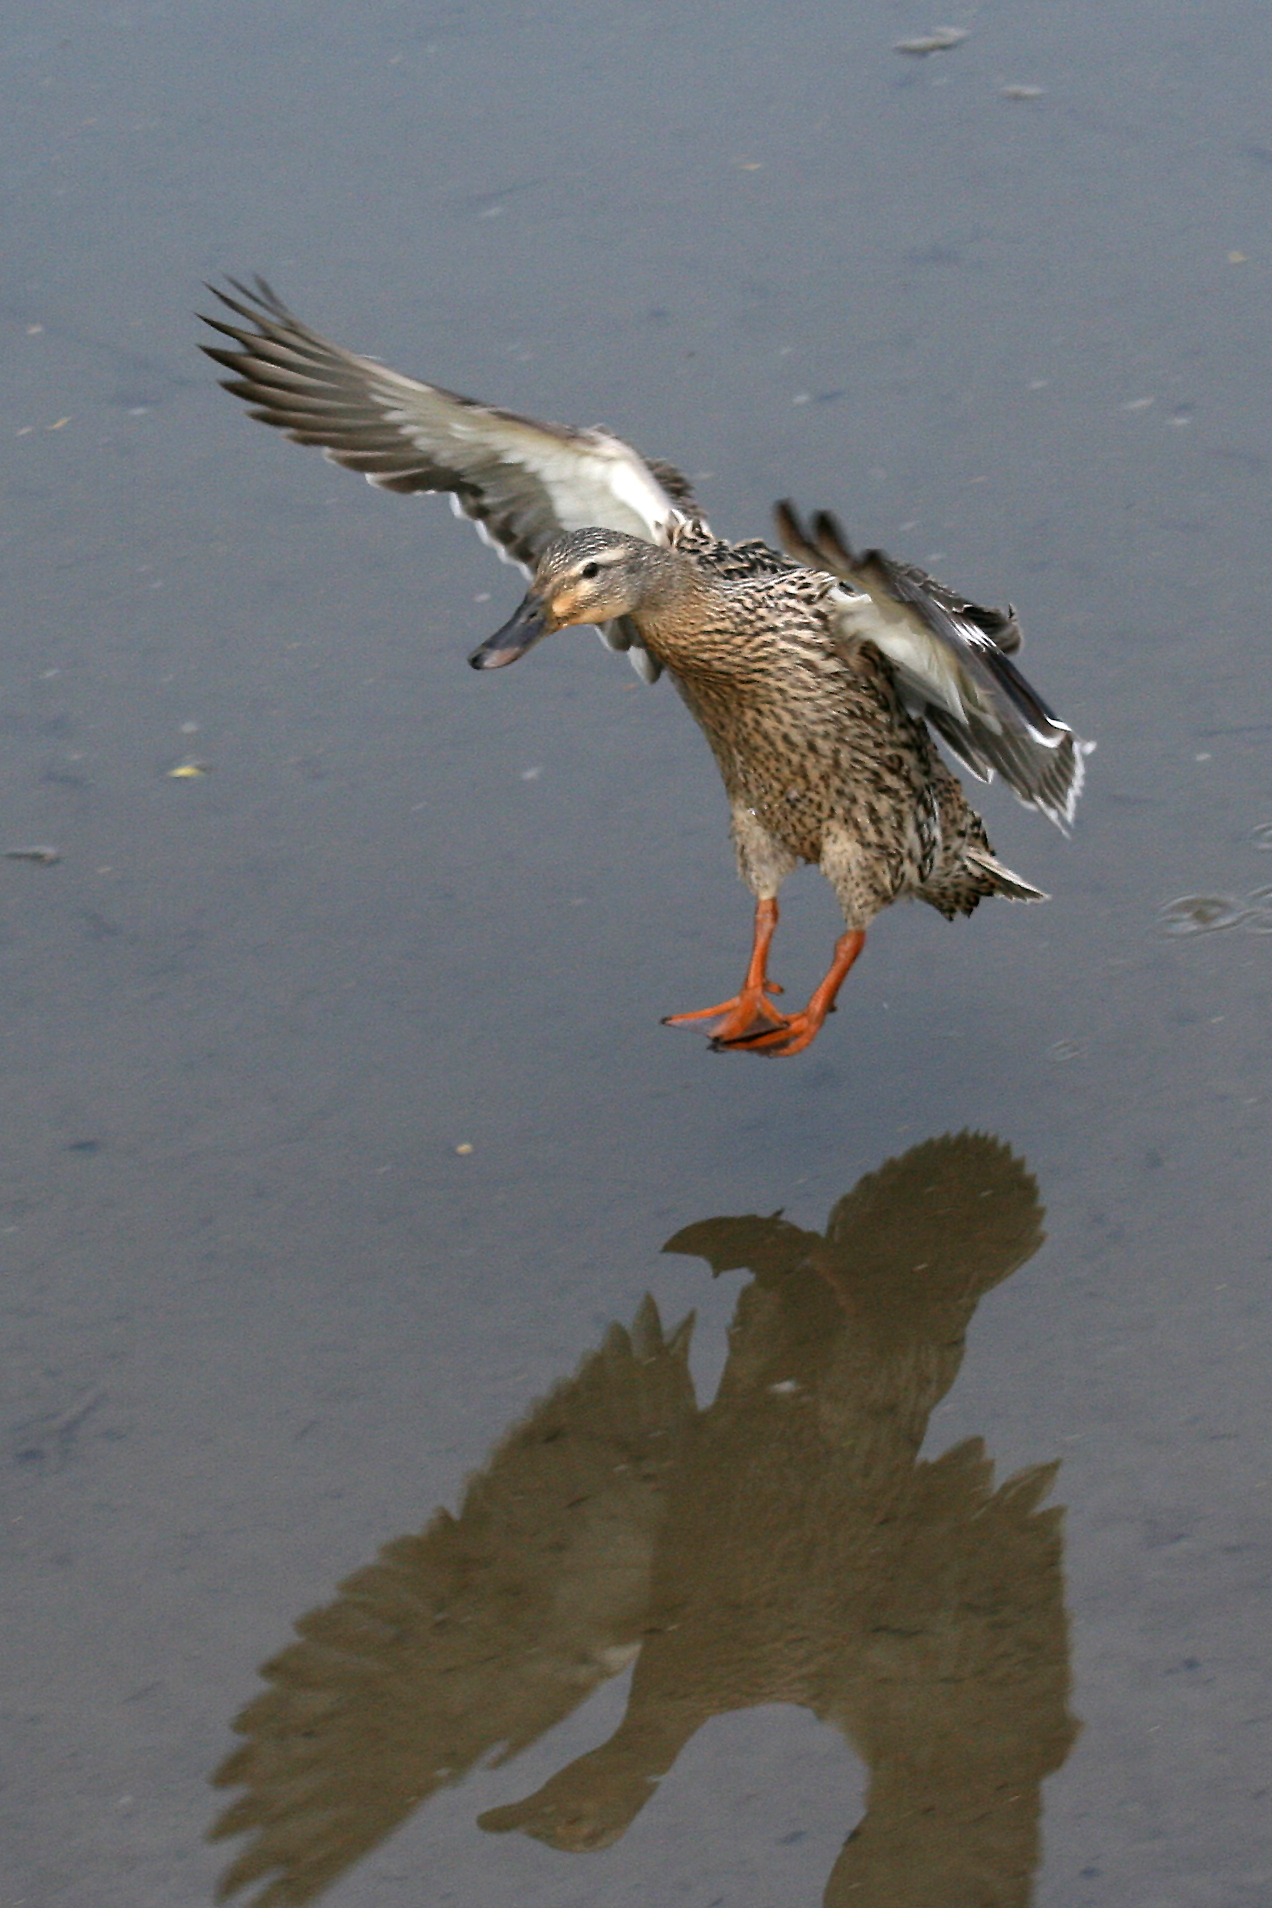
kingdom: Animalia
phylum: Chordata
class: Aves
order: Anseriformes
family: Anatidae
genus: Anas
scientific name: Anas platyrhynchos
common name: Mallard
